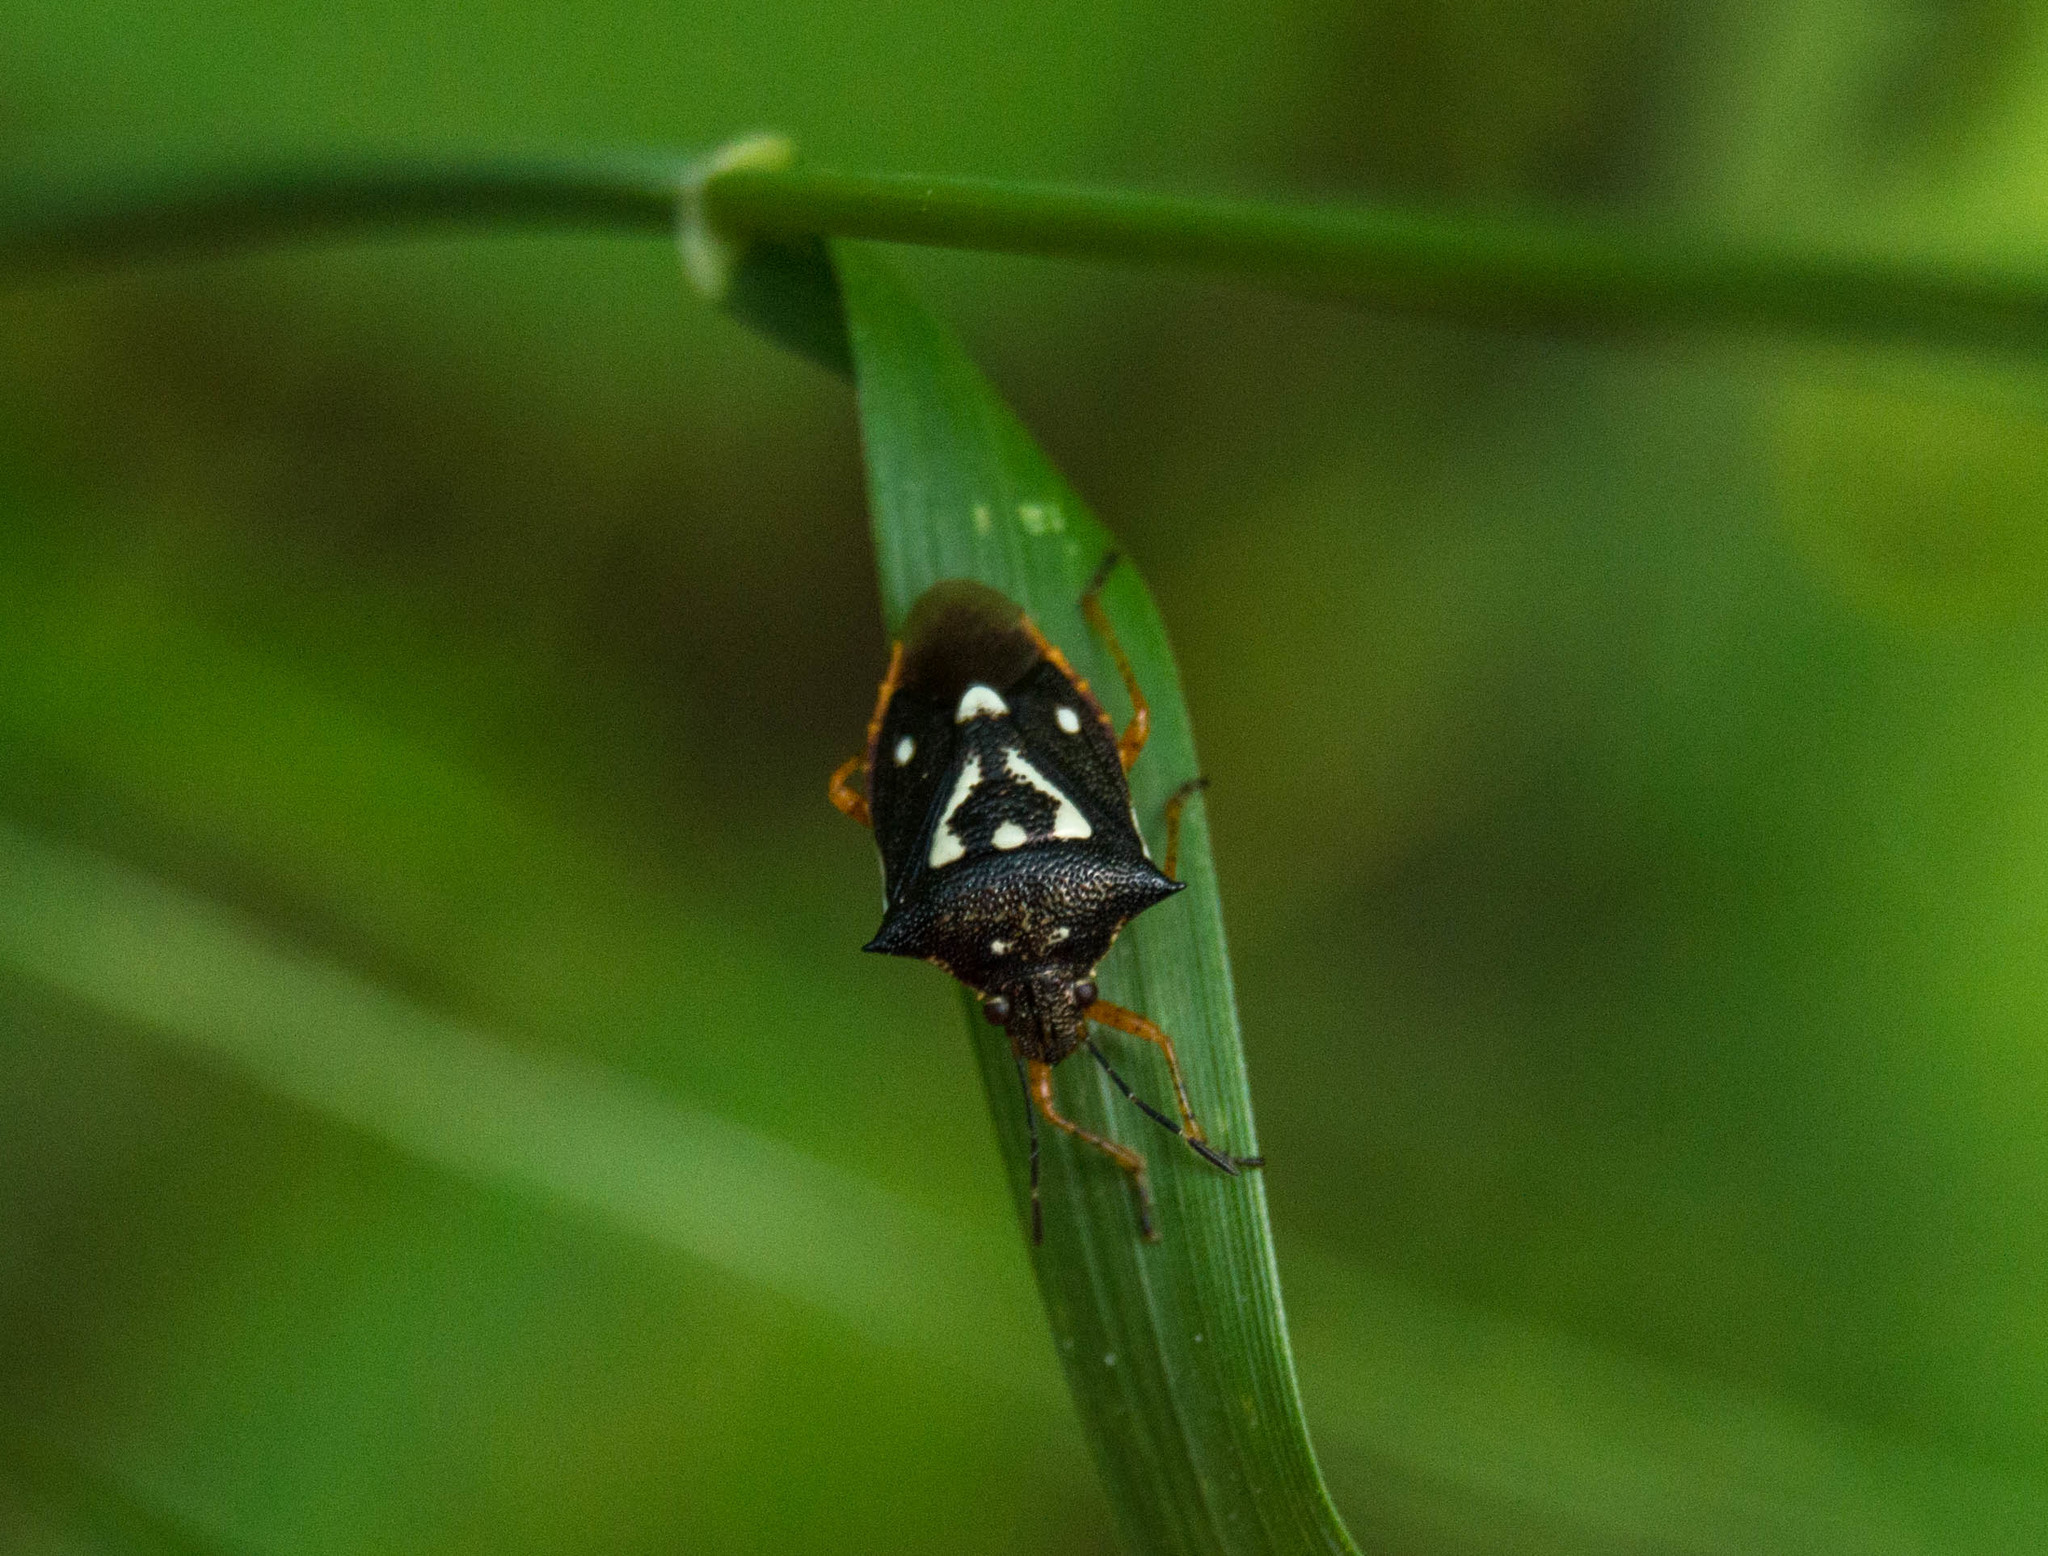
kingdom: Animalia
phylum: Arthropoda
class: Insecta
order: Hemiptera
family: Pentatomidae
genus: Mormidea
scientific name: Mormidea v-luteum
